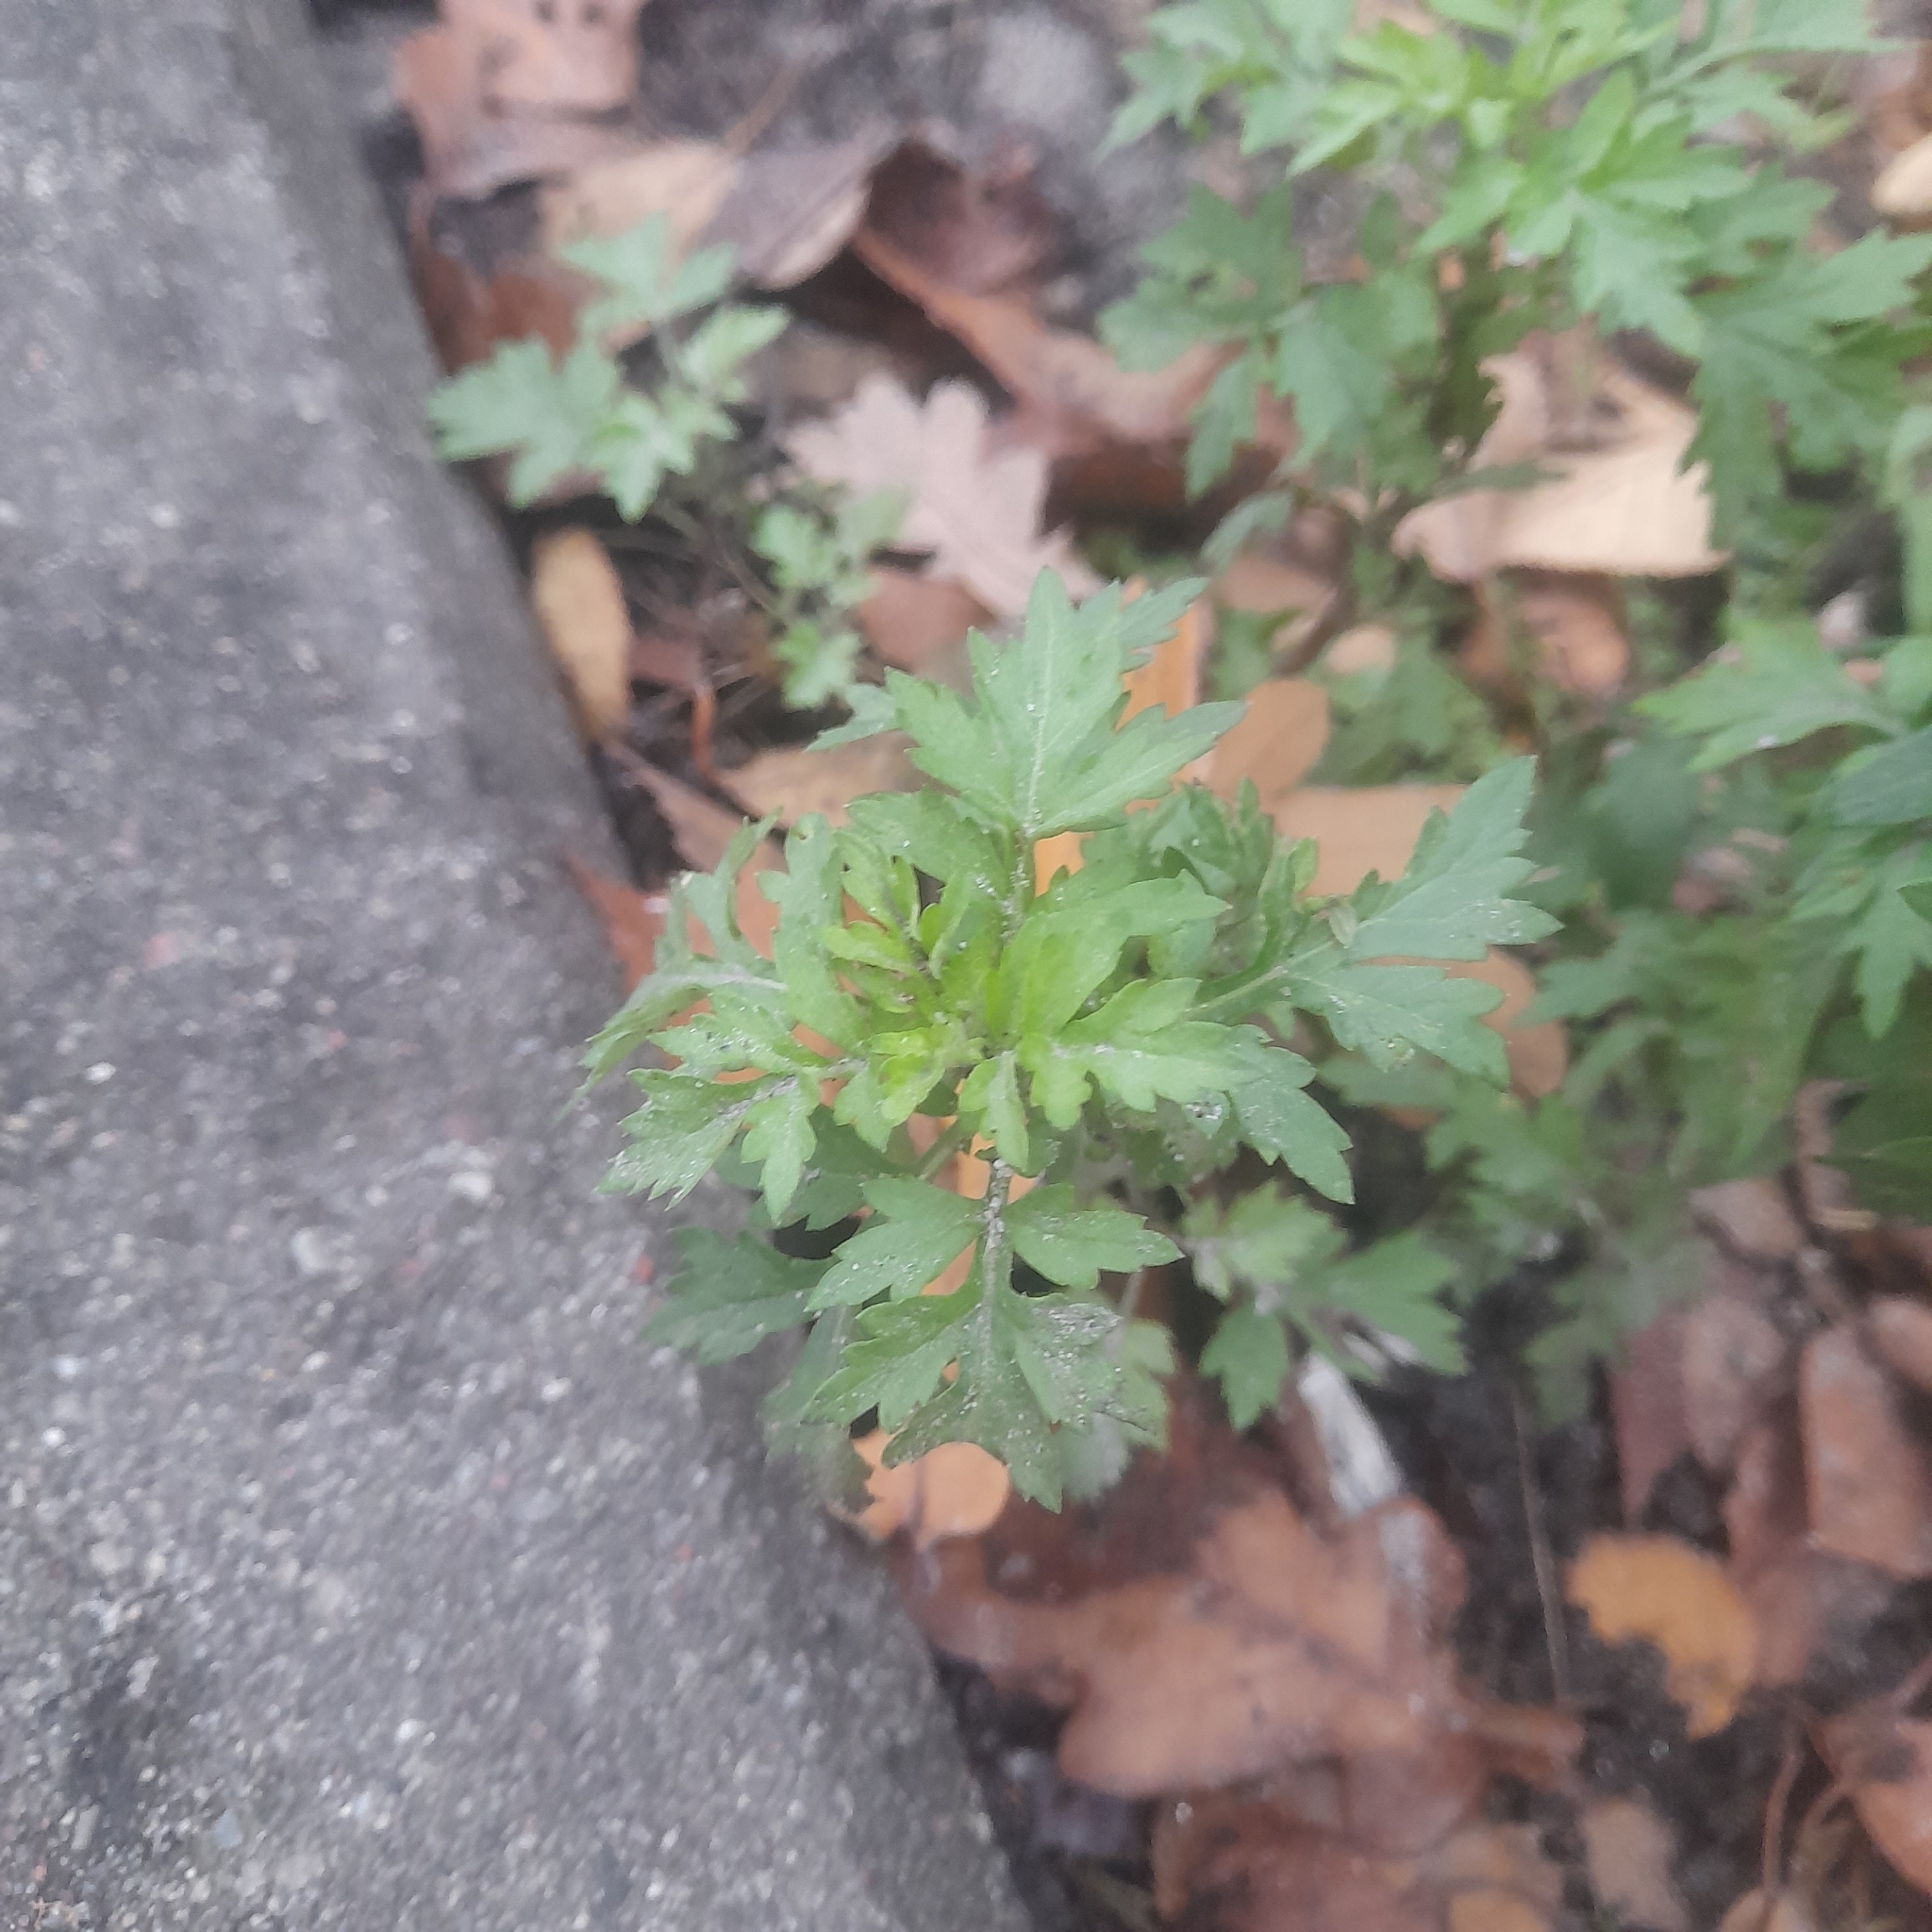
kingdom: Plantae
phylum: Tracheophyta
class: Magnoliopsida
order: Asterales
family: Asteraceae
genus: Artemisia
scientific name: Artemisia vulgaris
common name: Mugwort
